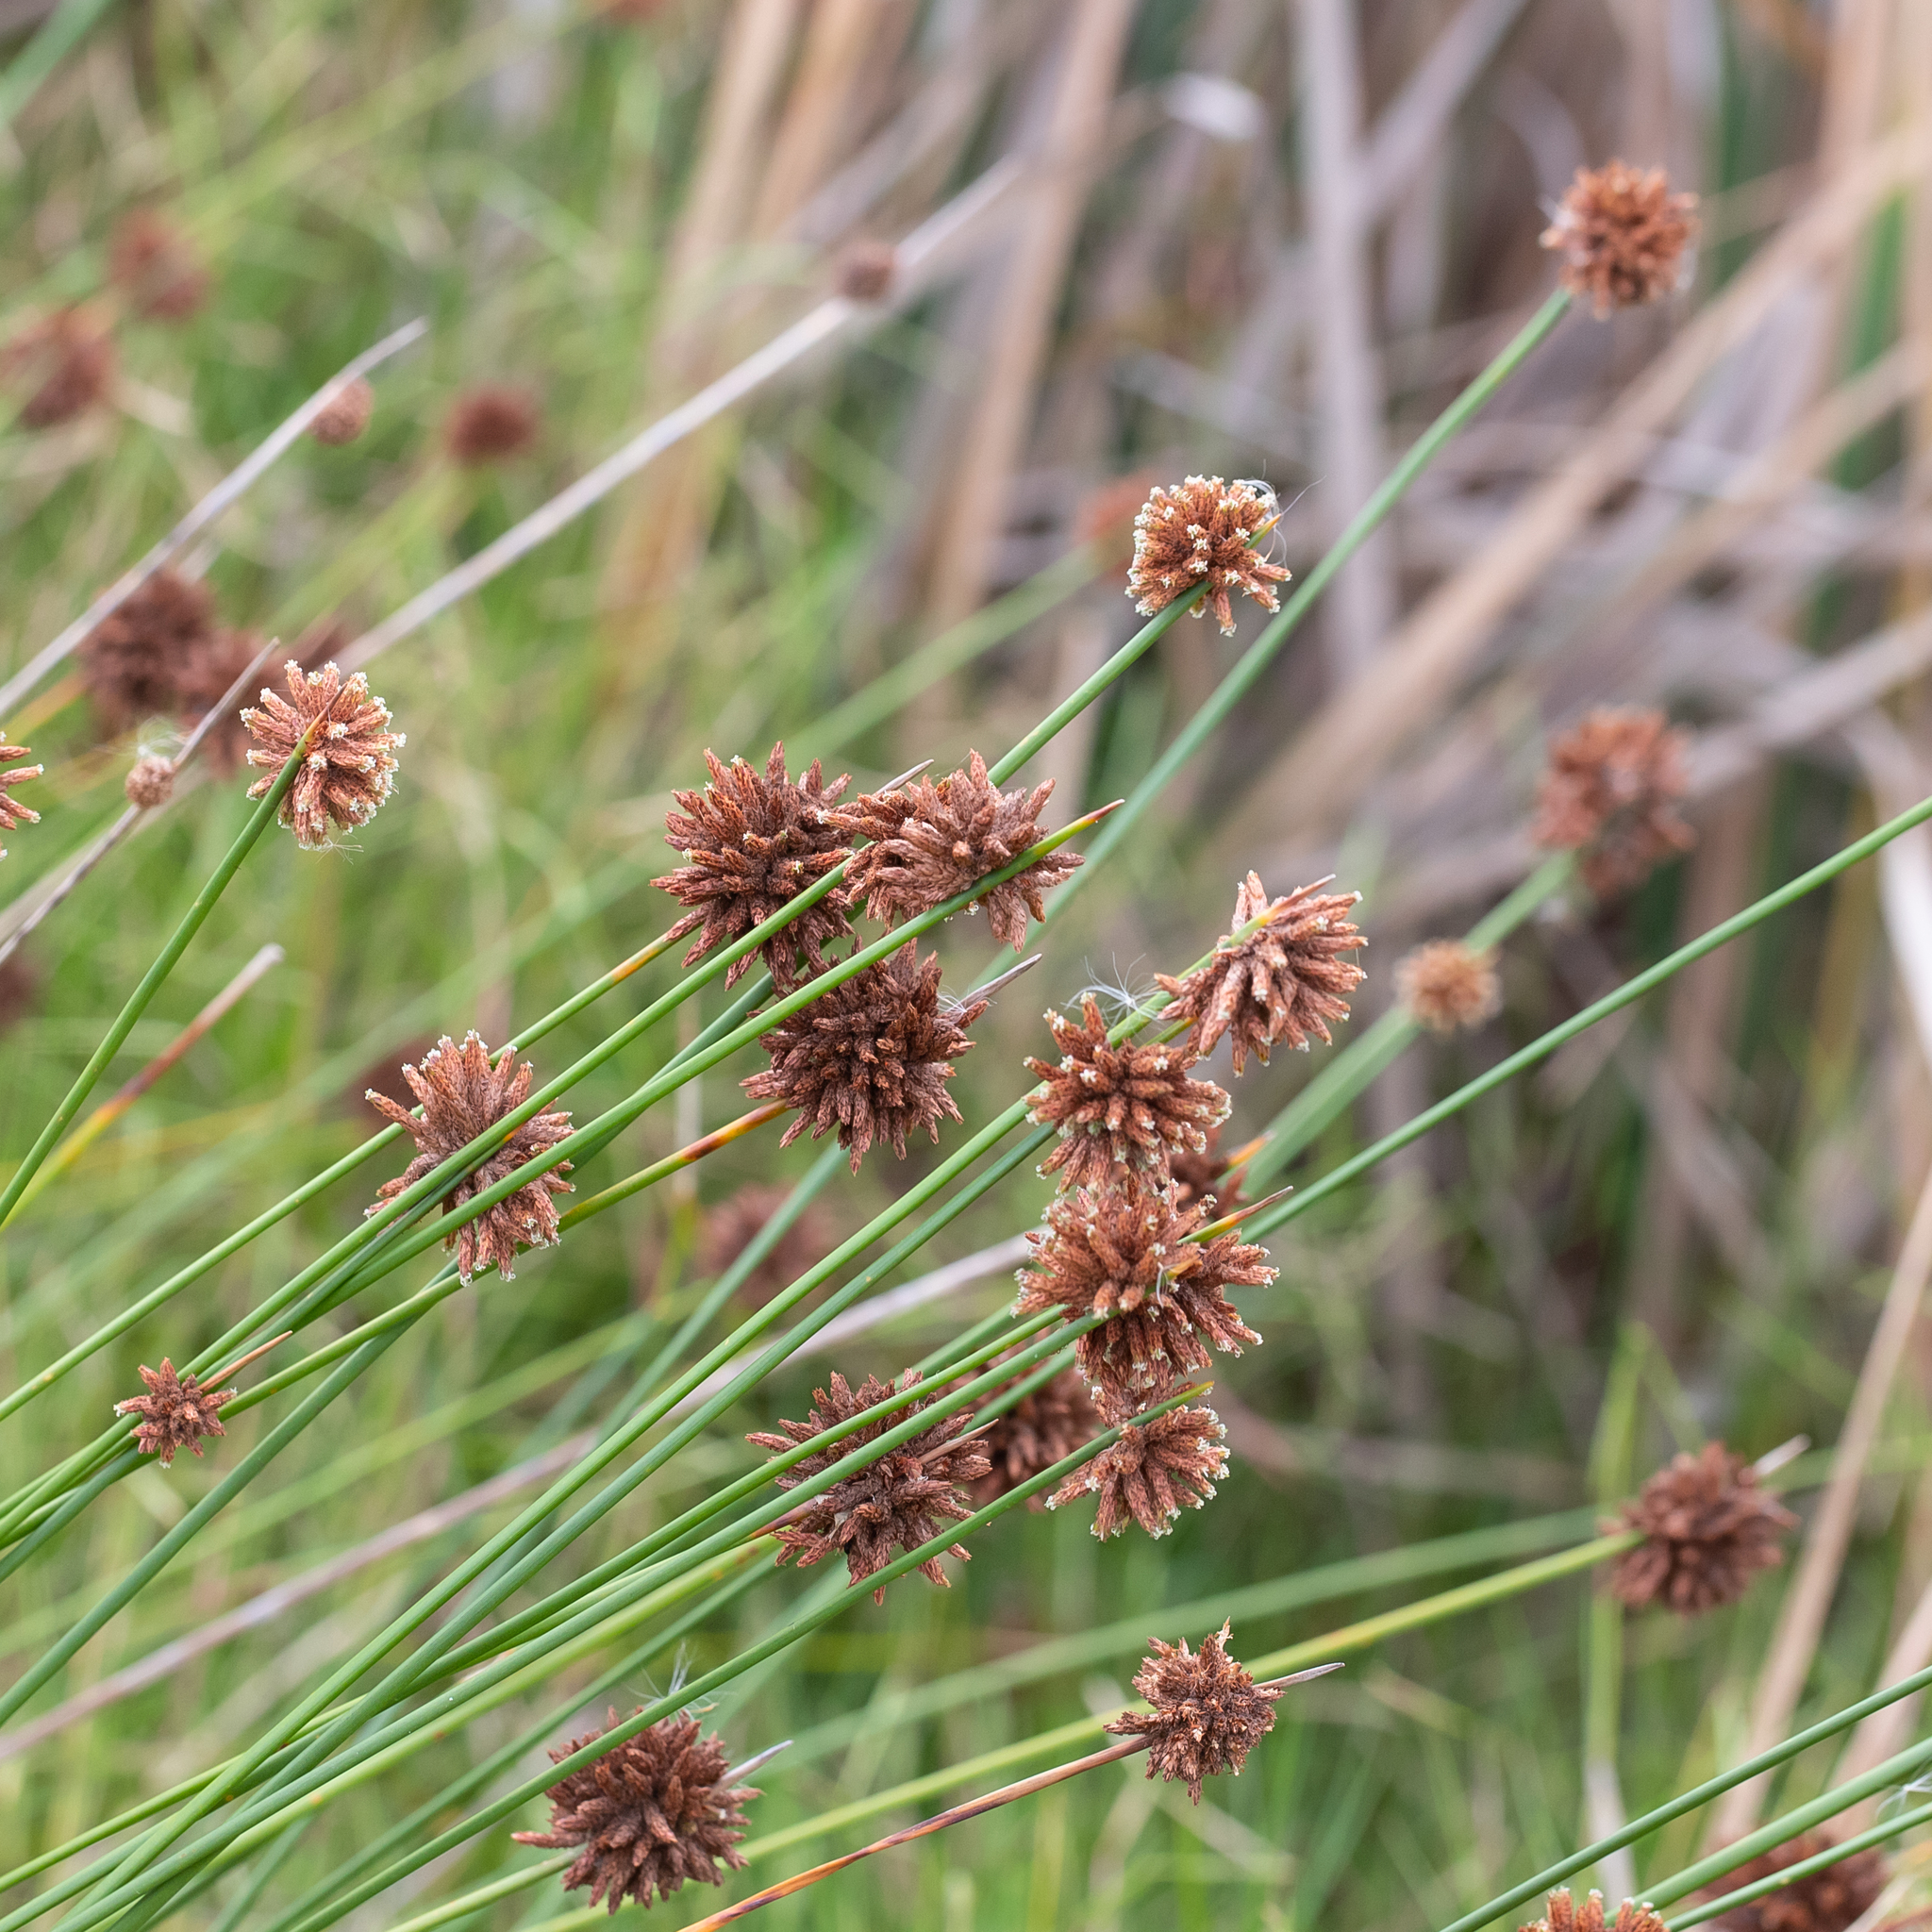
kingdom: Plantae
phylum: Tracheophyta
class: Liliopsida
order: Poales
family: Cyperaceae
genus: Ficinia
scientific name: Ficinia nodosa
